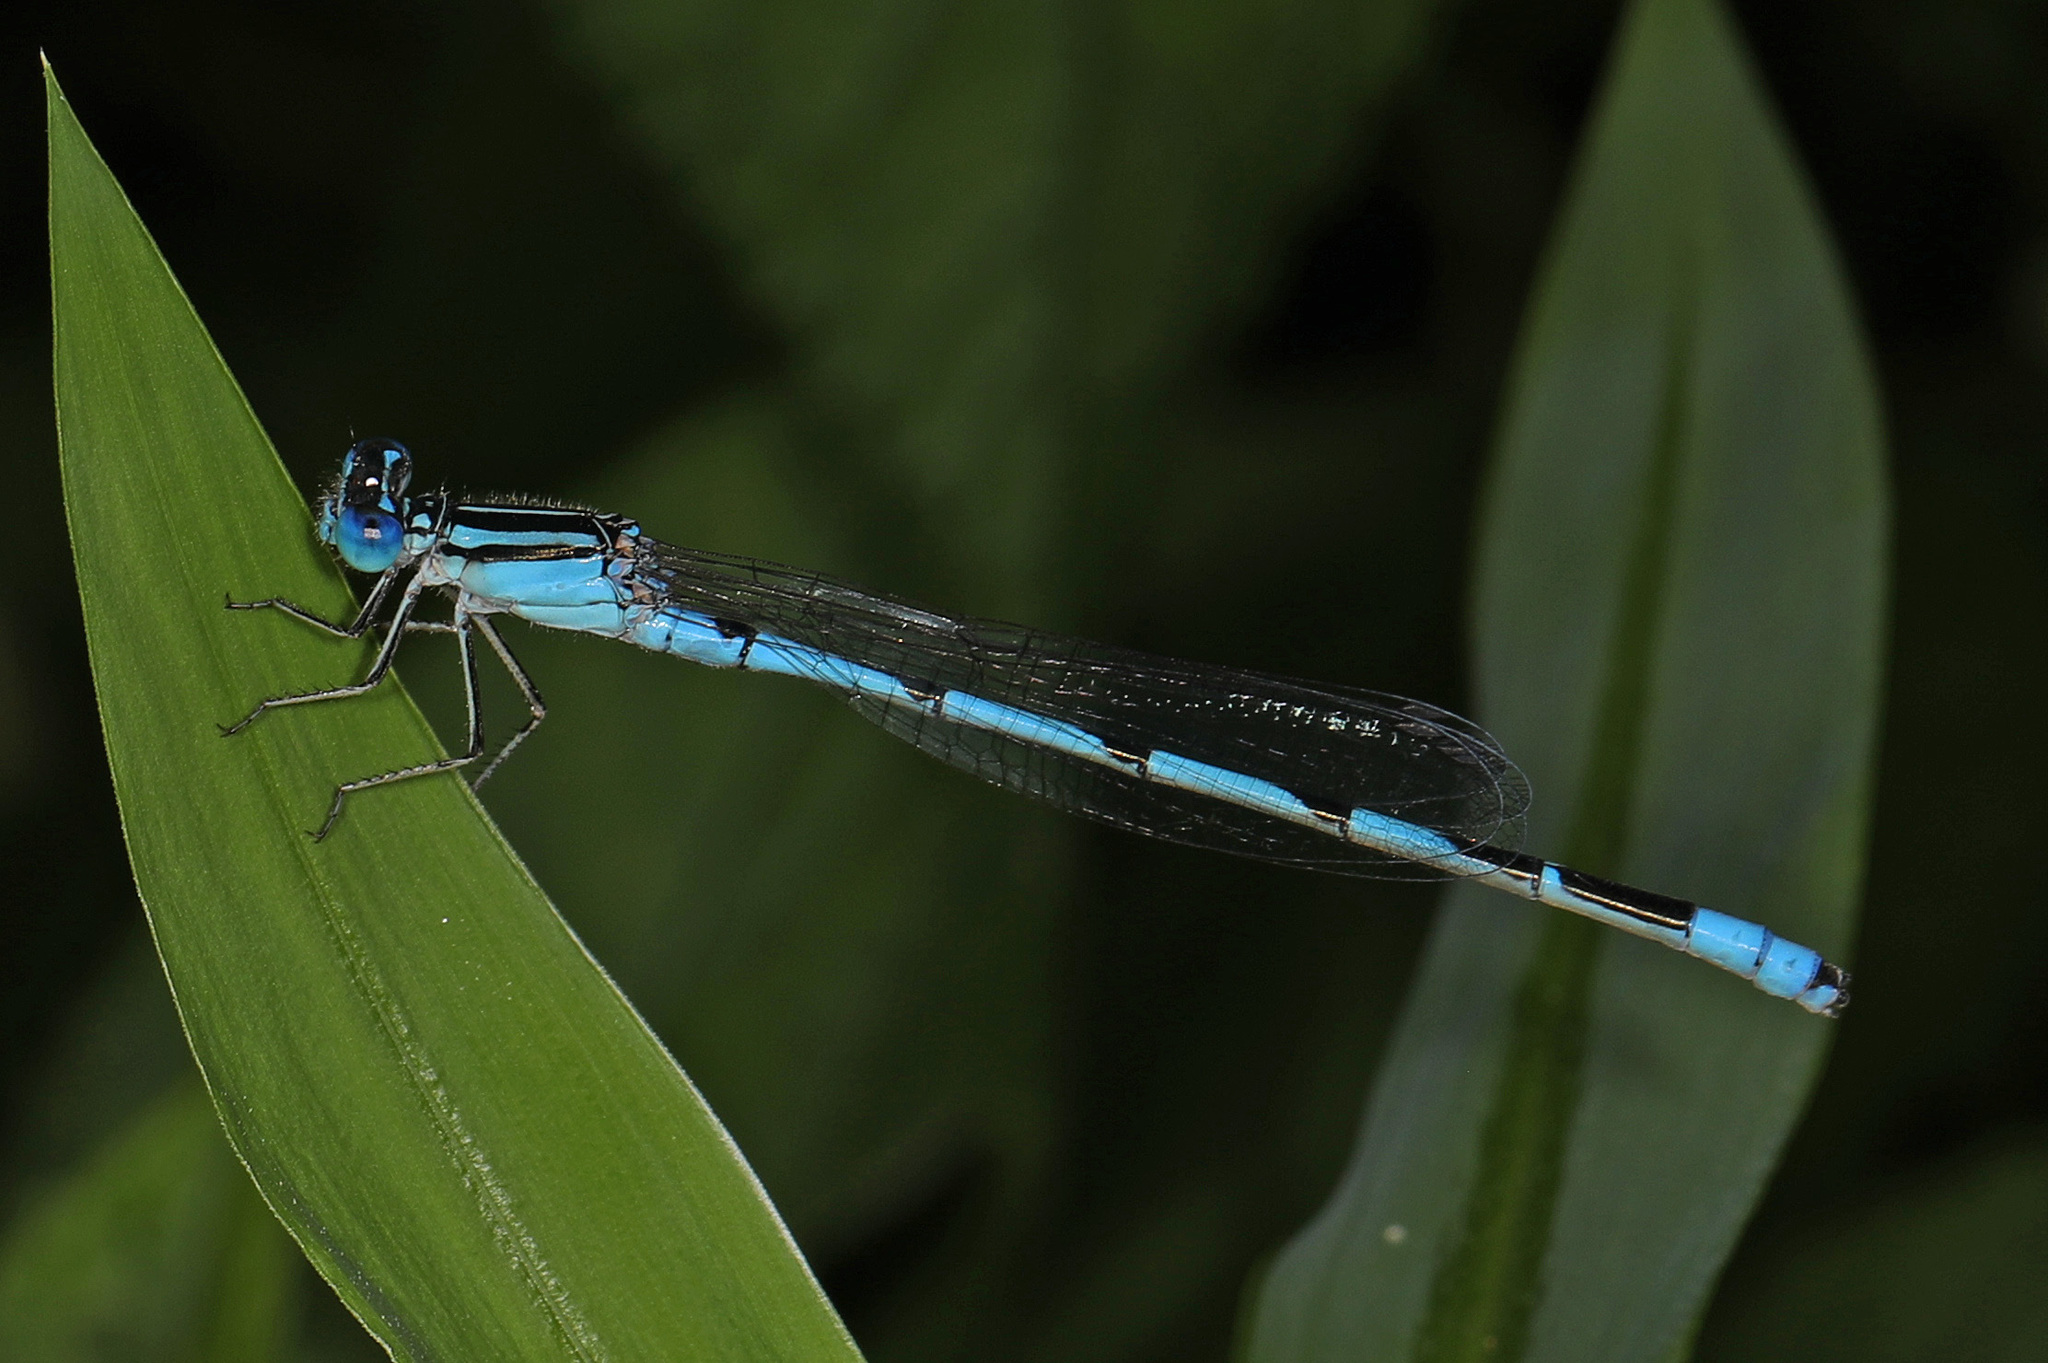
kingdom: Animalia
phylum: Arthropoda
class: Insecta
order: Odonata
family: Coenagrionidae
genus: Enallagma
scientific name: Enallagma durum
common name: Big bluet
